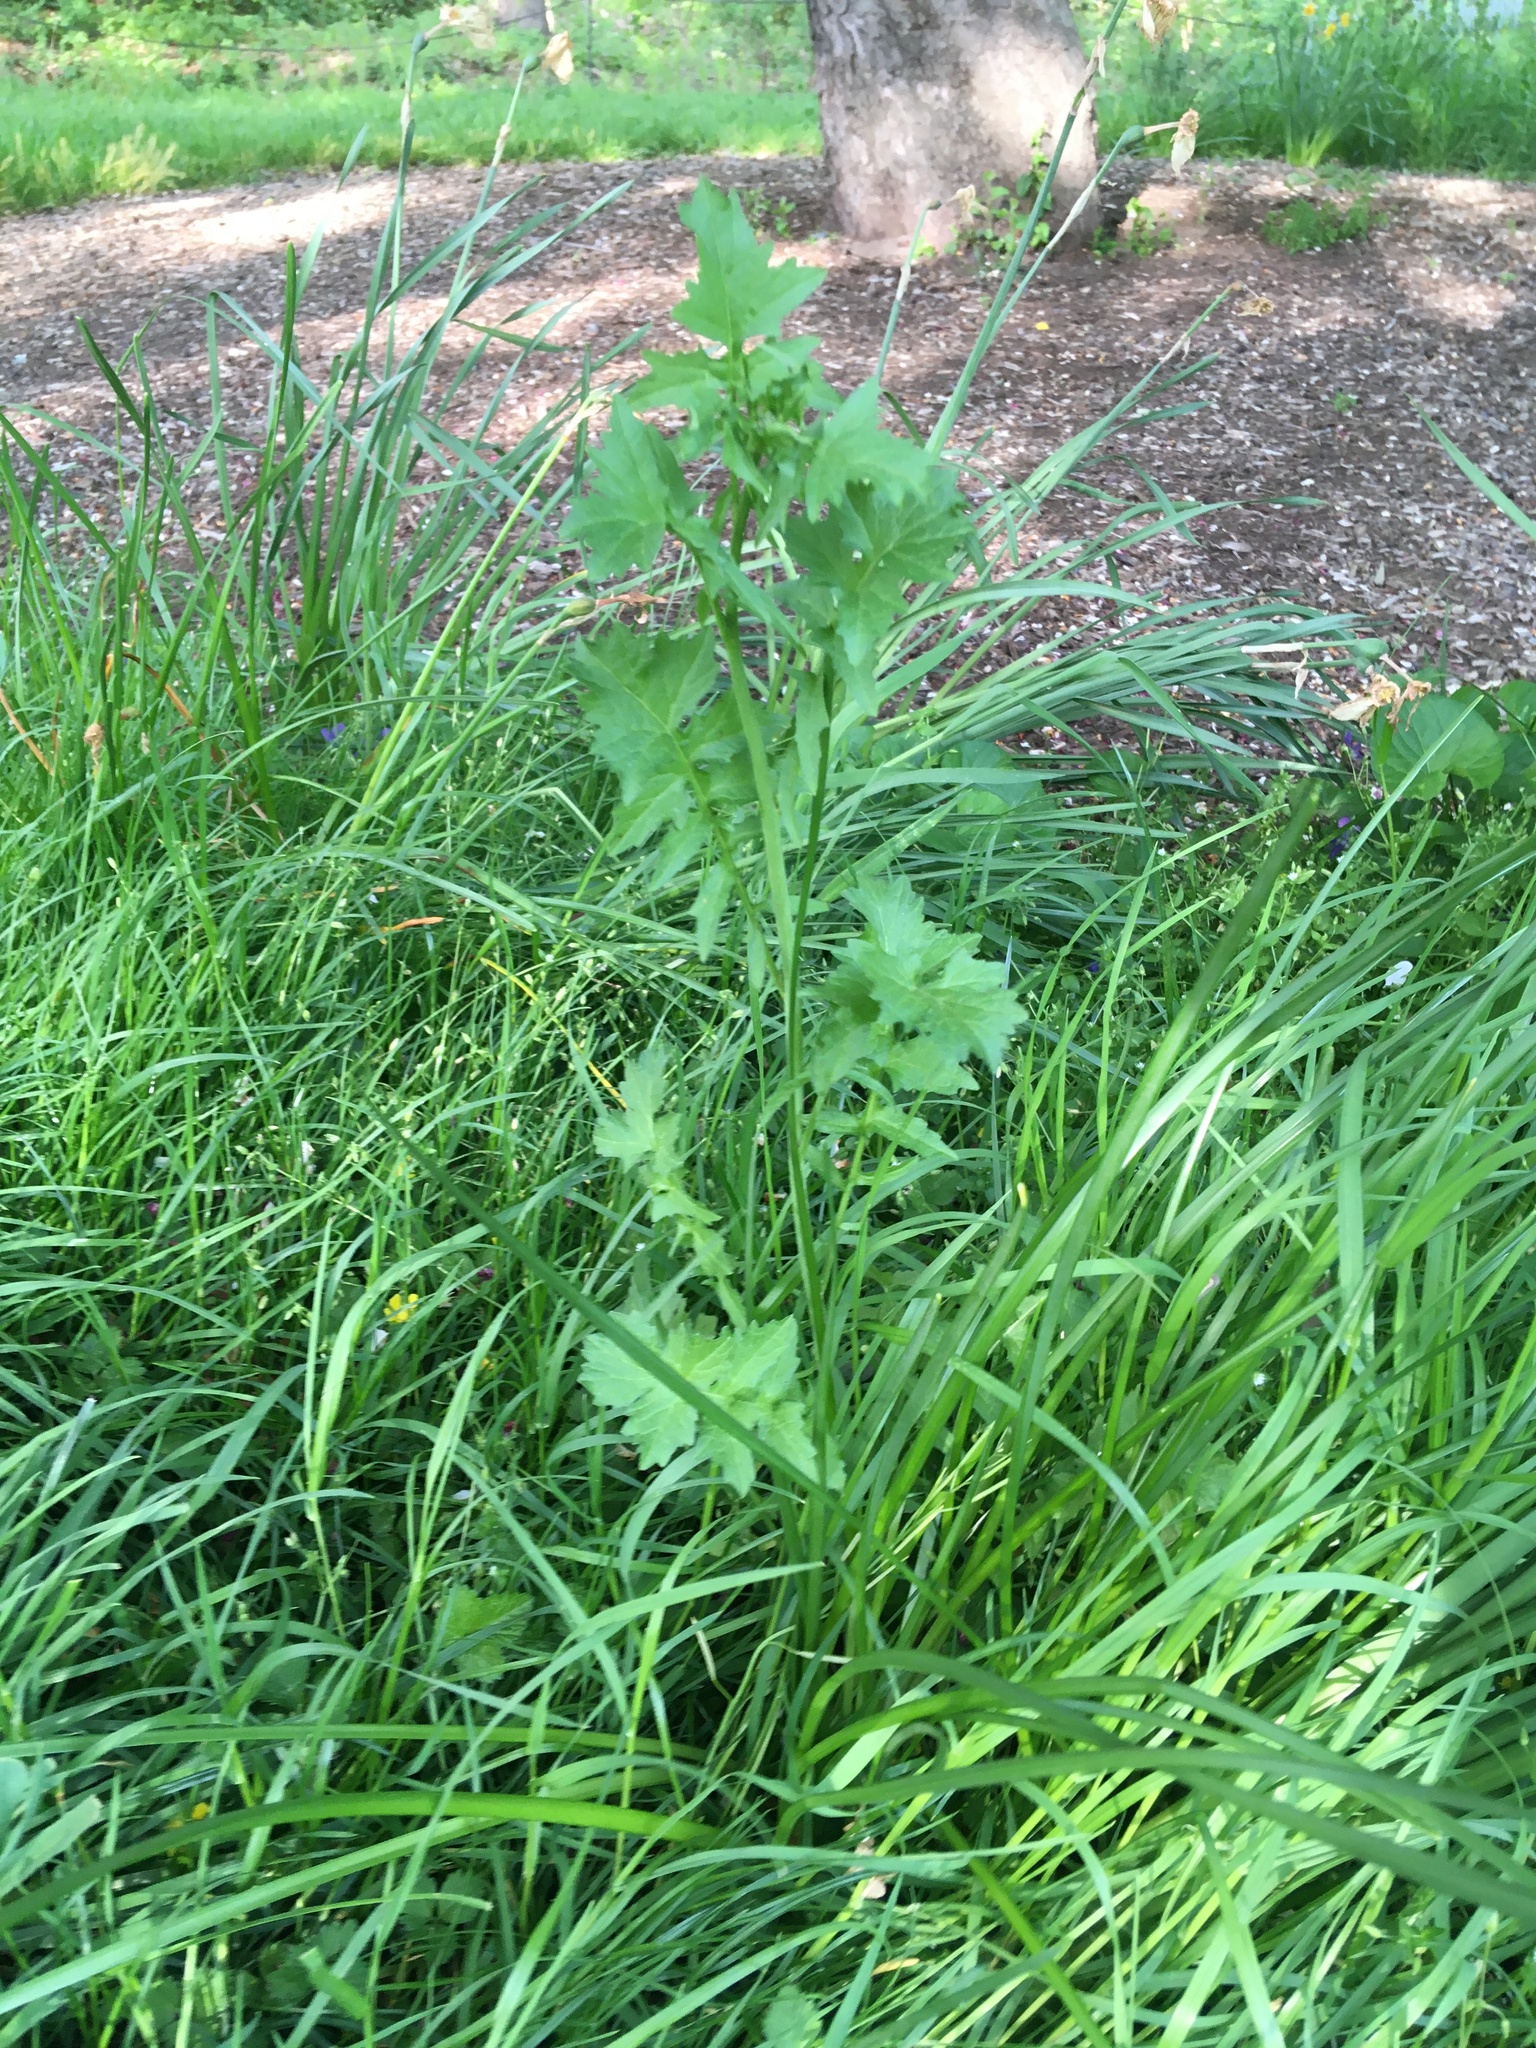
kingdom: Plantae
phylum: Tracheophyta
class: Magnoliopsida
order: Brassicales
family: Brassicaceae
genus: Sisymbrium
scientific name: Sisymbrium officinale
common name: Hedge mustard
